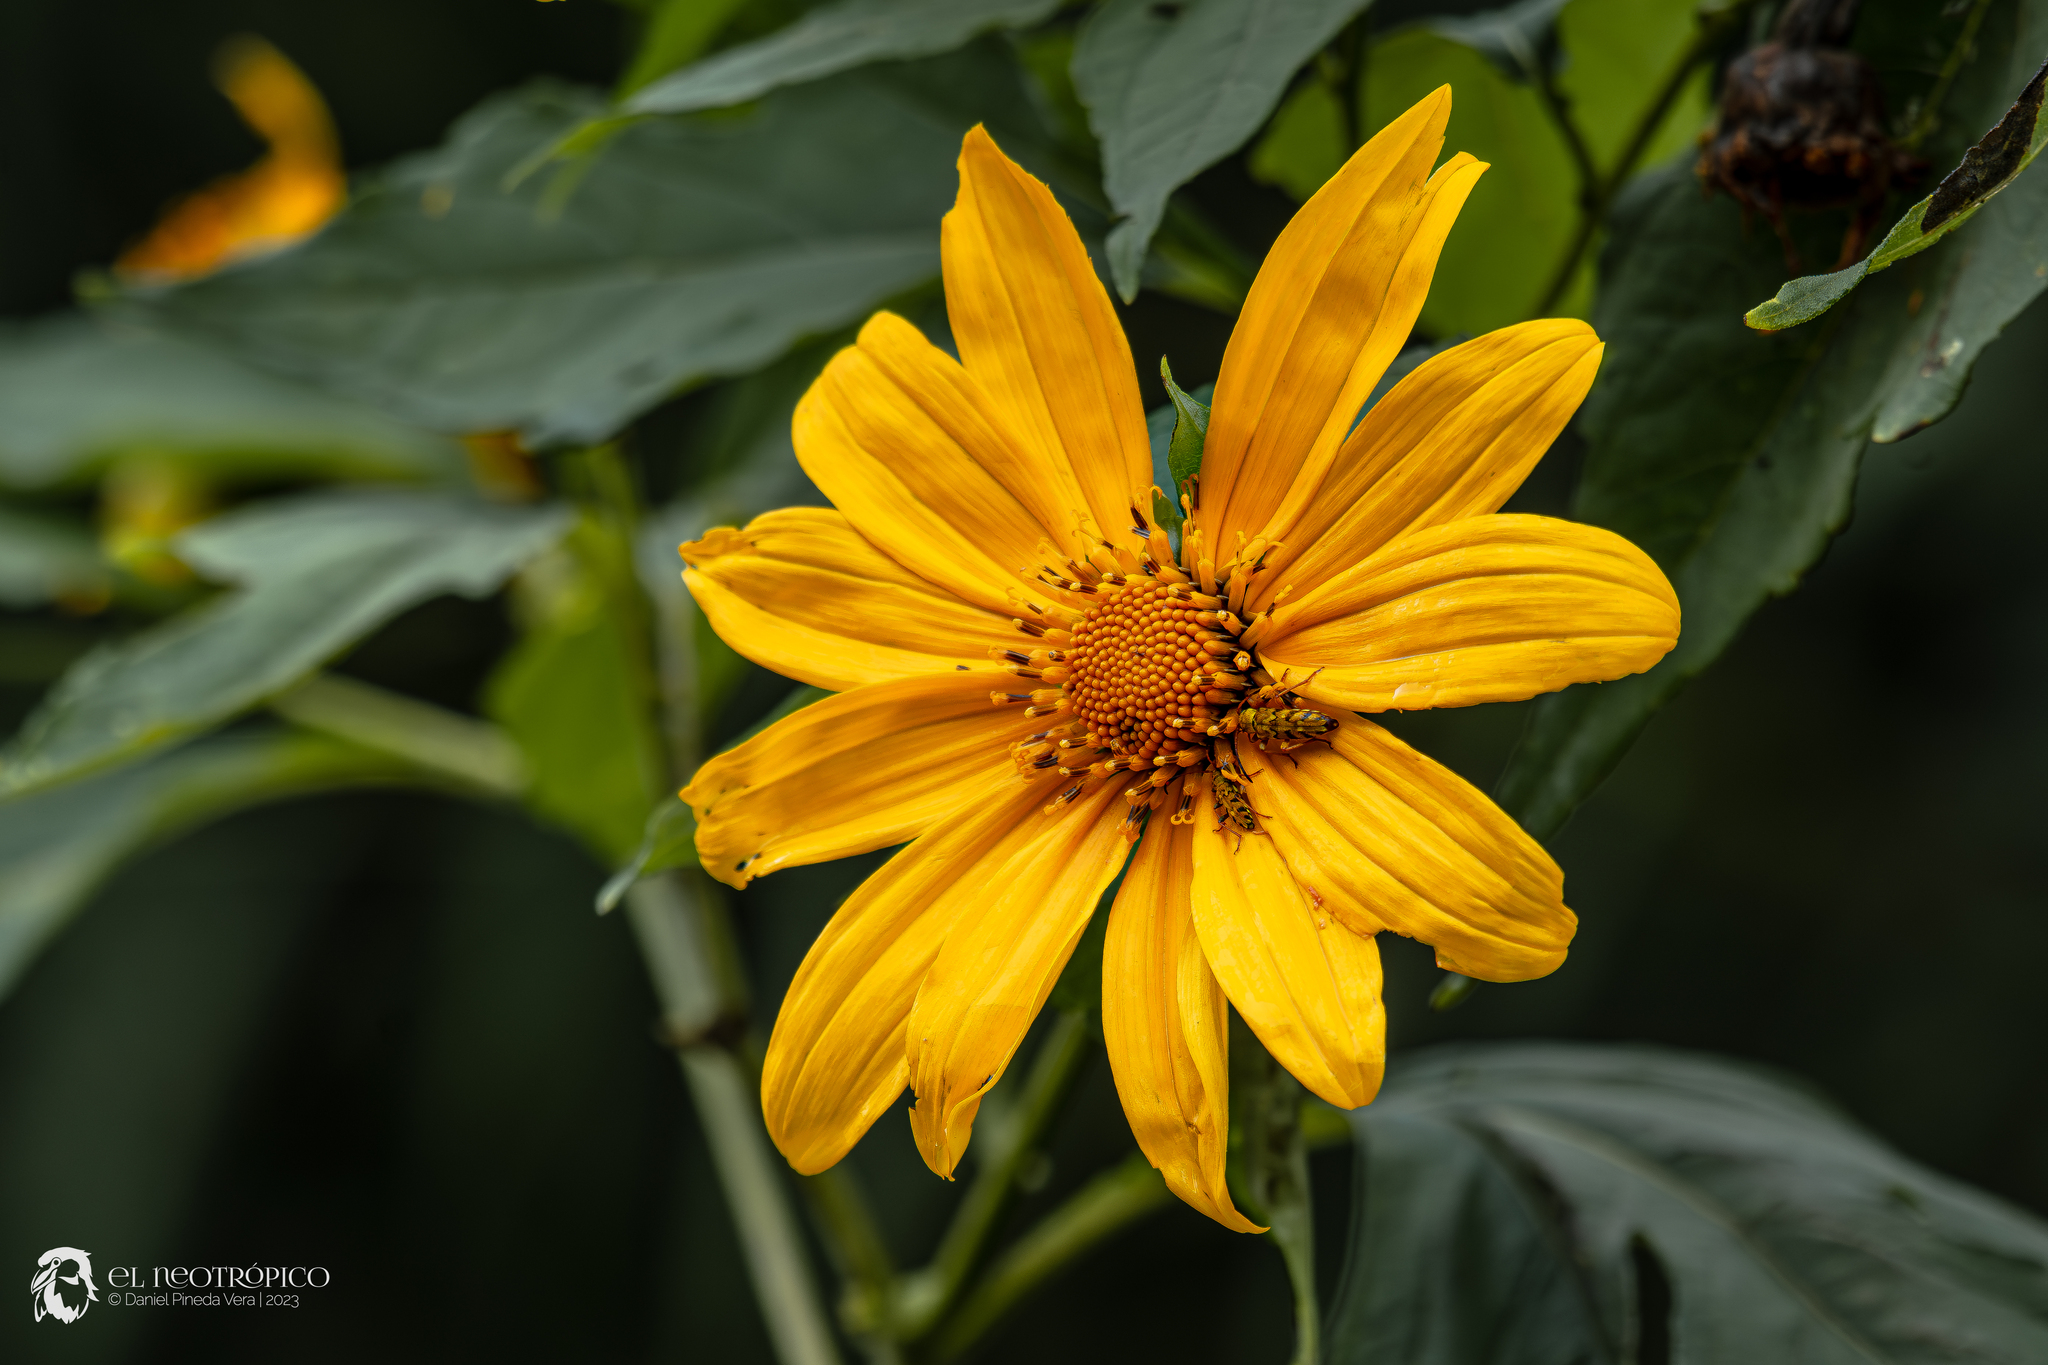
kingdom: Plantae
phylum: Tracheophyta
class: Magnoliopsida
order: Asterales
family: Asteraceae
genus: Tithonia
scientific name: Tithonia diversifolia
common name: Tree marigold
